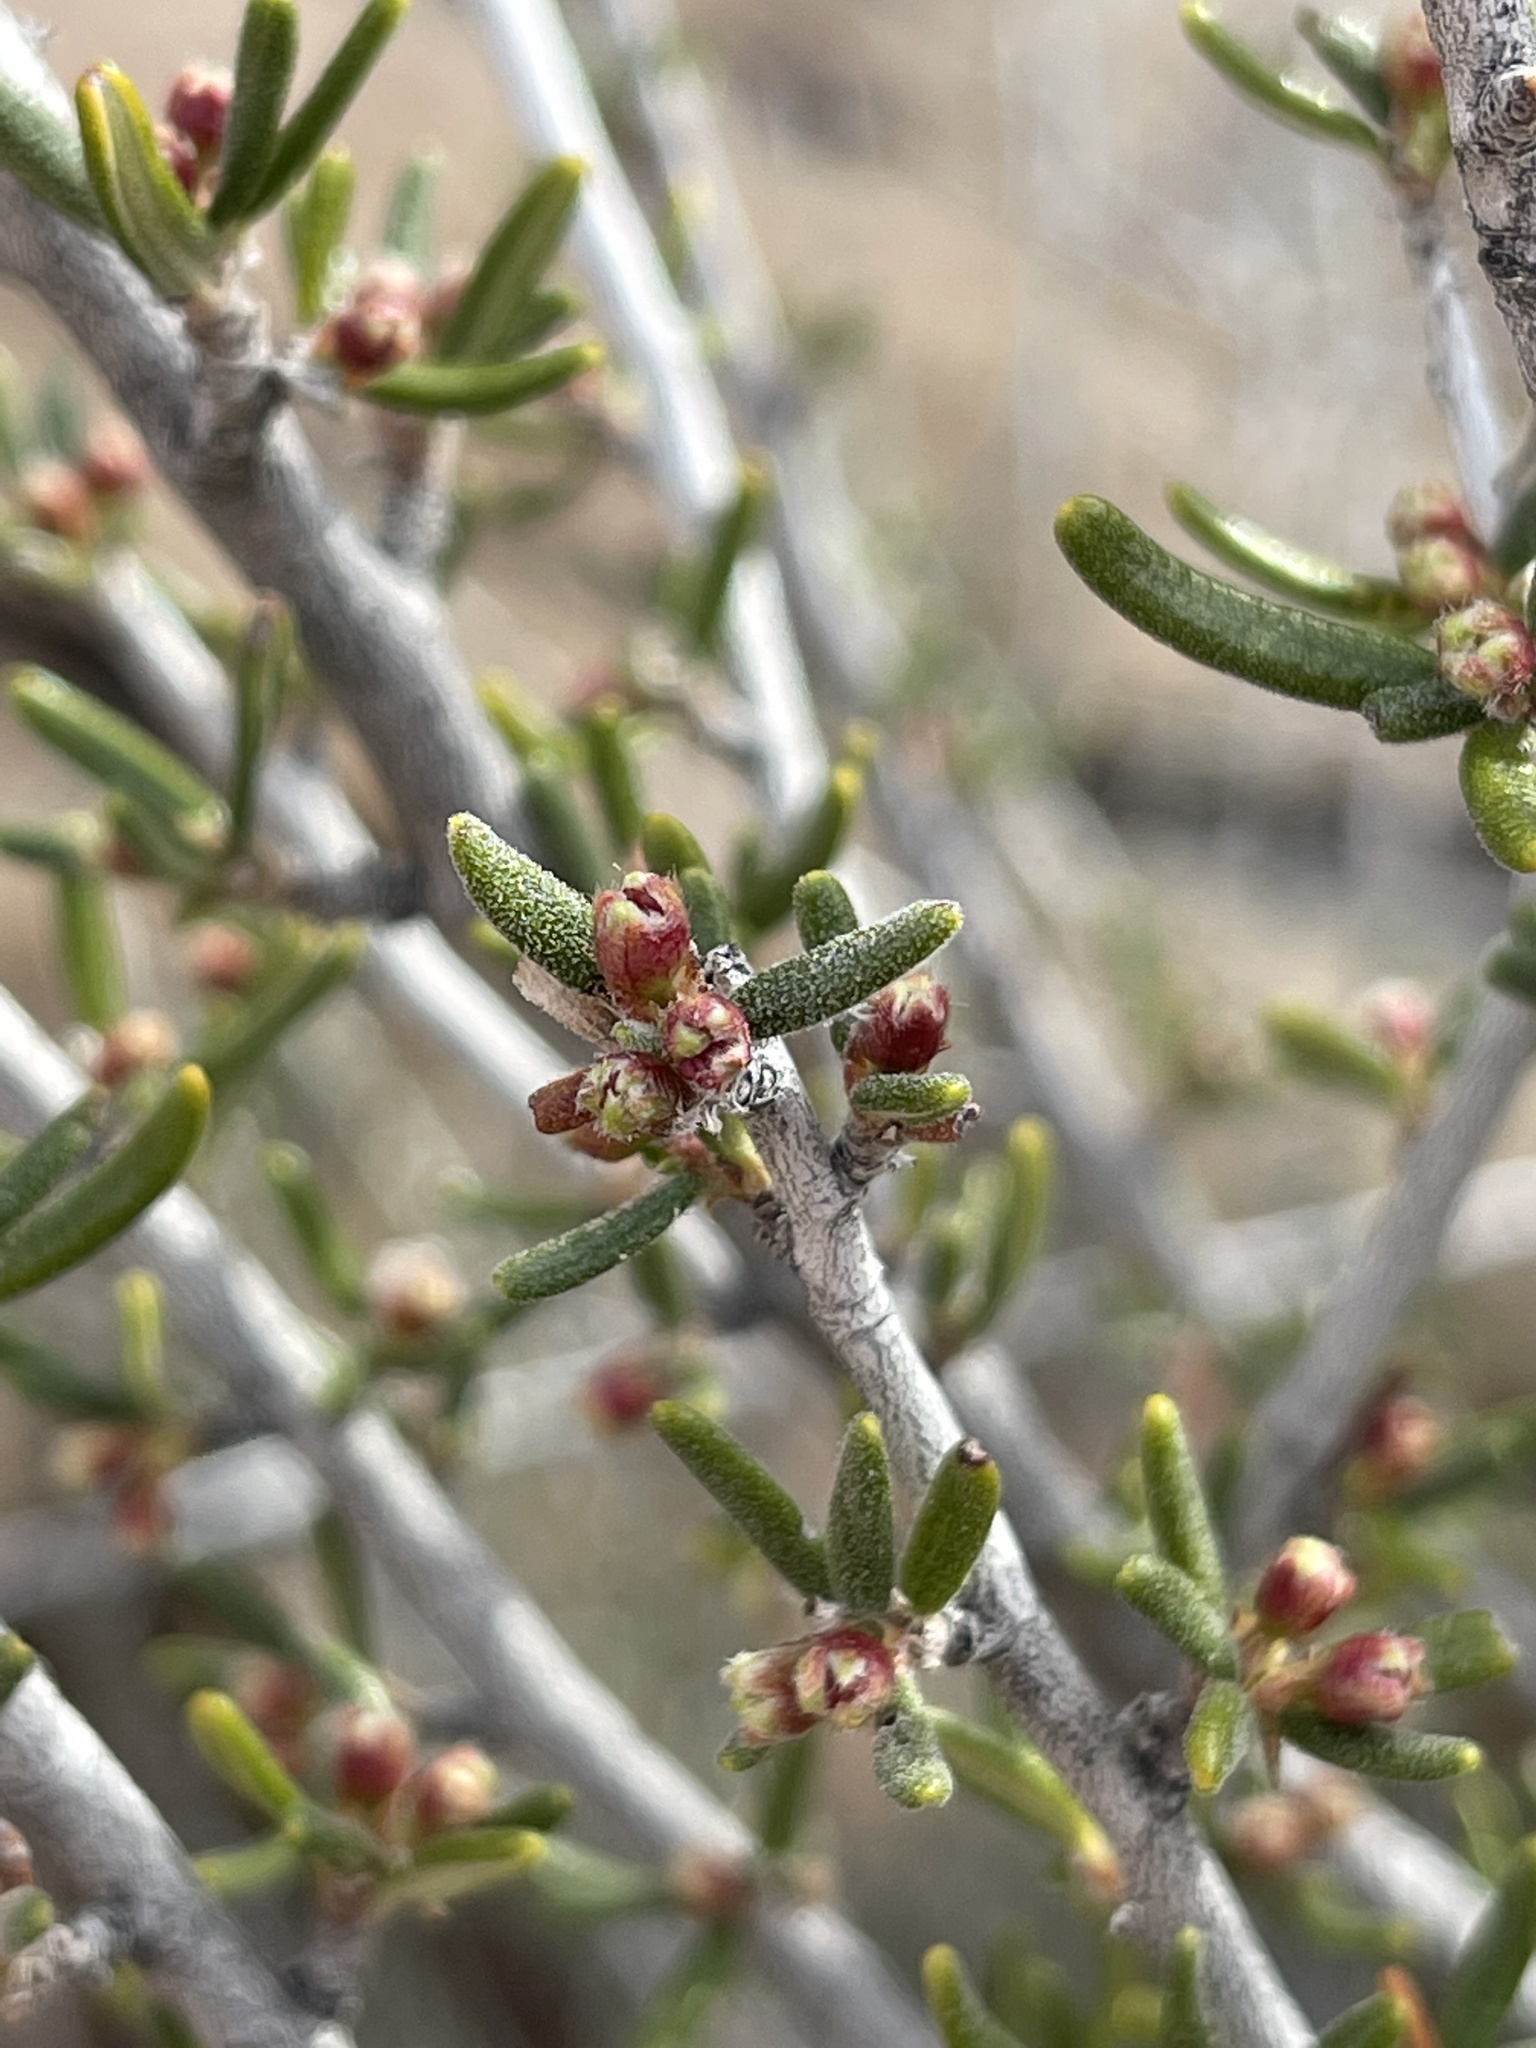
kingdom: Plantae
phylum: Tracheophyta
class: Magnoliopsida
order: Rosales
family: Rosaceae
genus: Cercocarpus
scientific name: Cercocarpus intricatus
